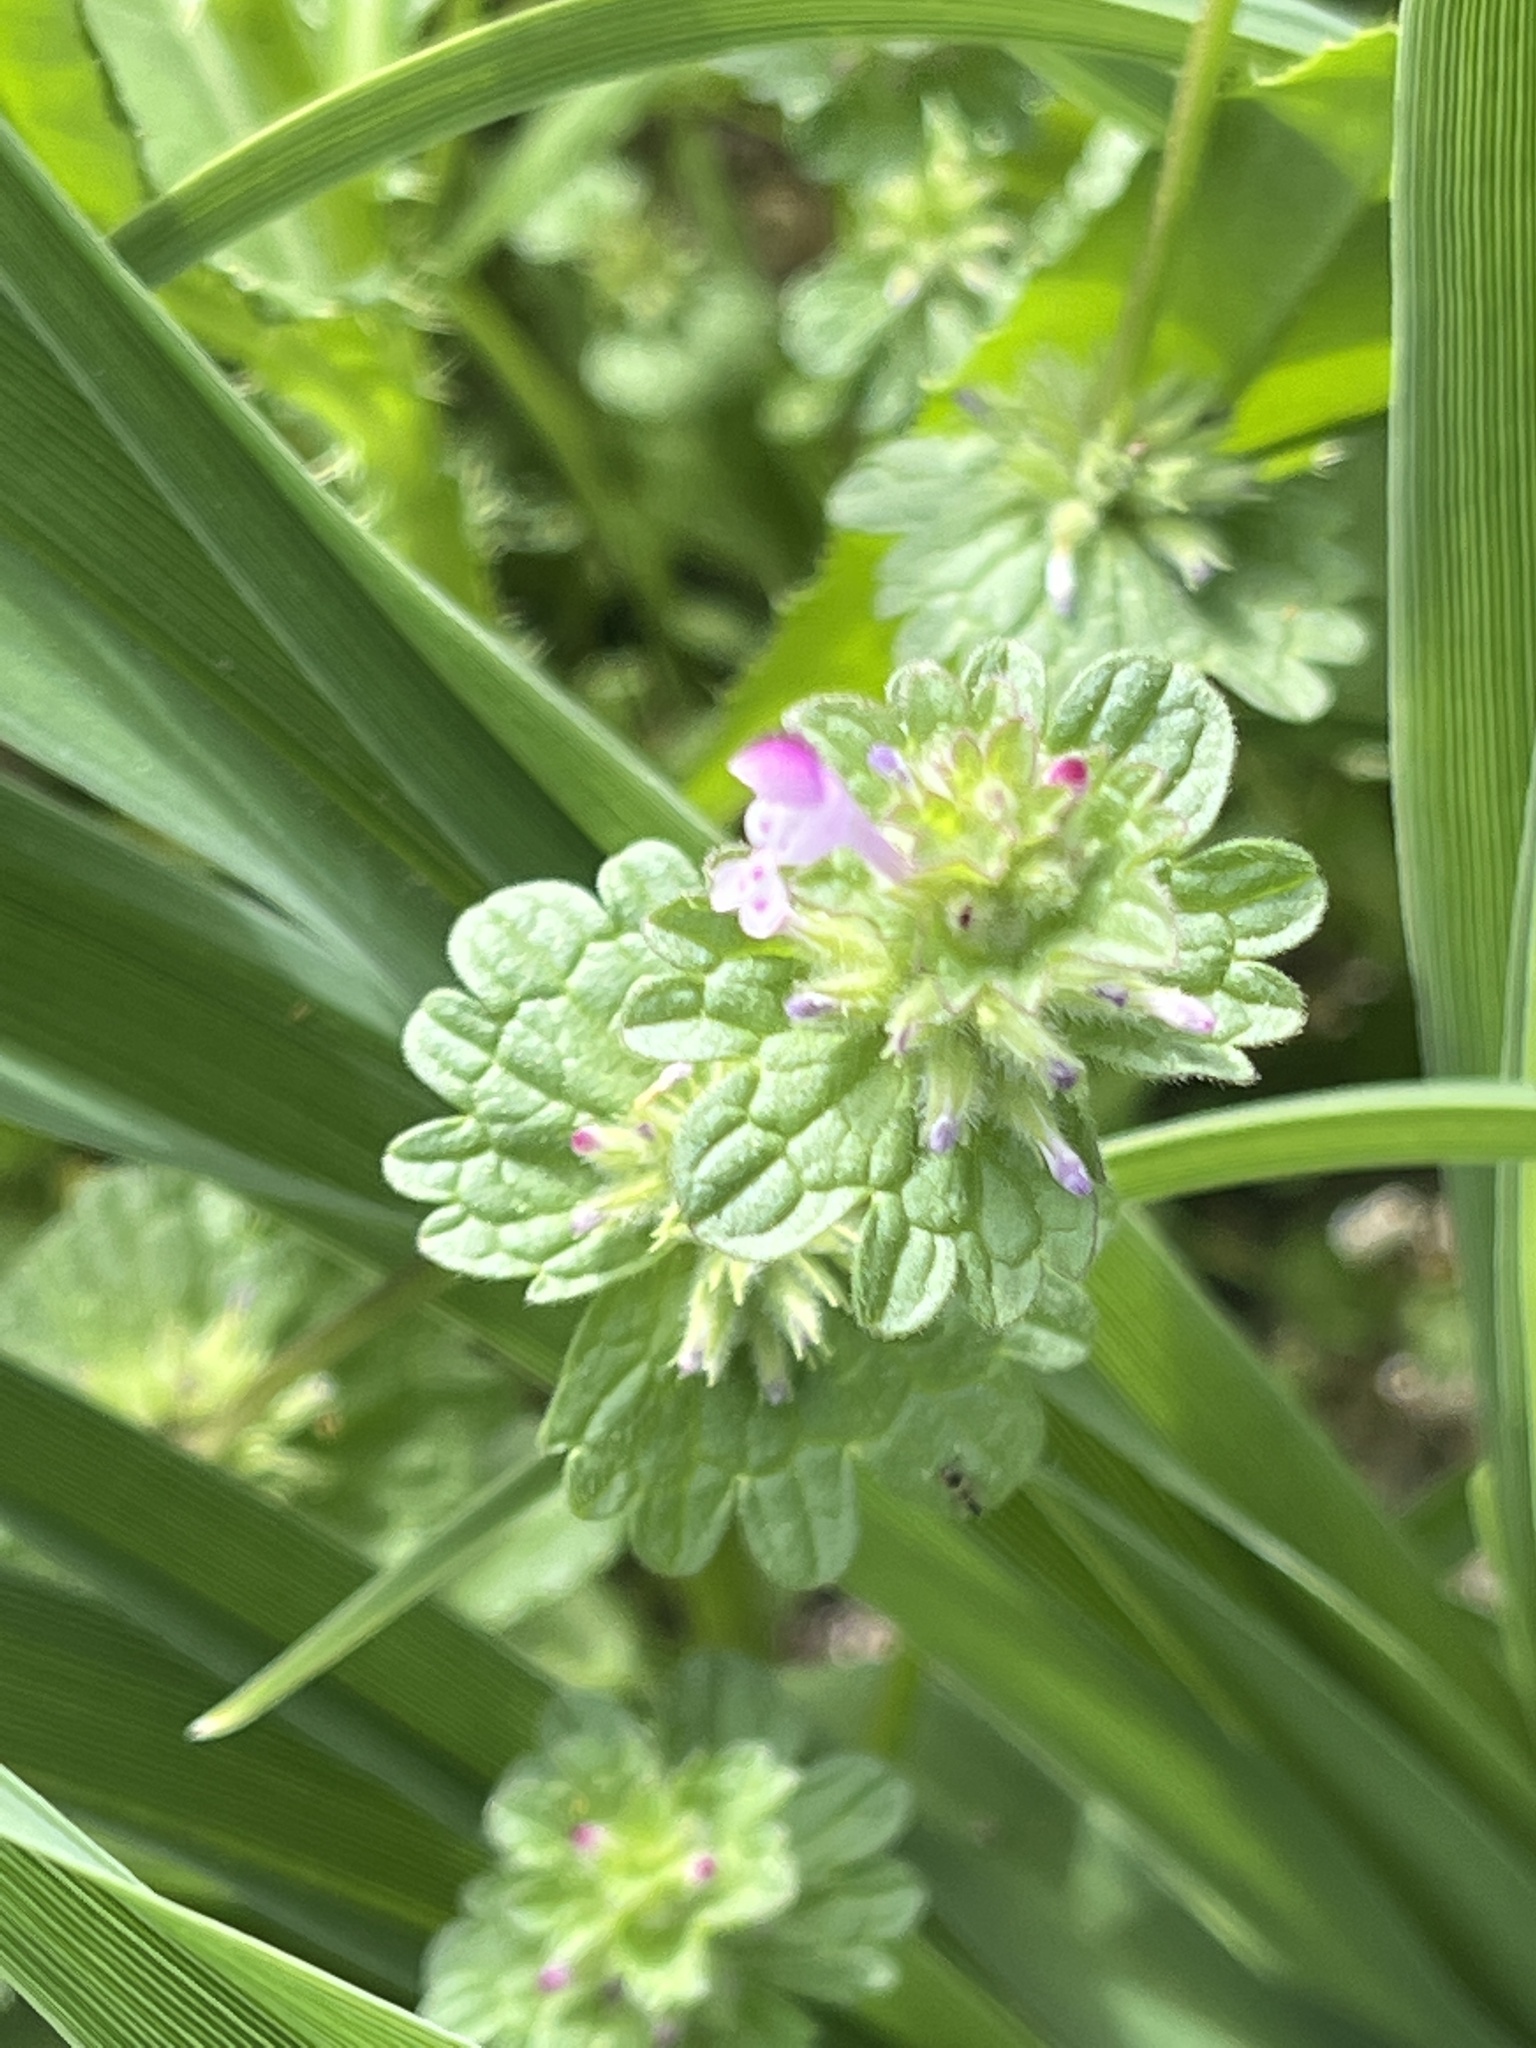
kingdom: Plantae
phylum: Tracheophyta
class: Magnoliopsida
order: Lamiales
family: Lamiaceae
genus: Lamium
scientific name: Lamium amplexicaule
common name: Henbit dead-nettle
